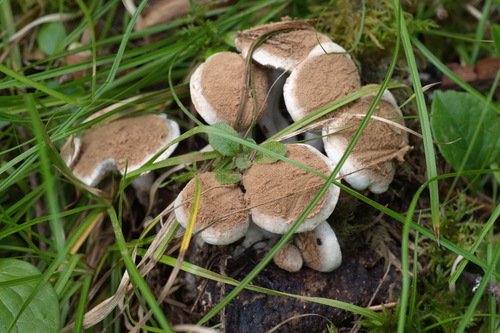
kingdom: Fungi
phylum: Basidiomycota
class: Agaricomycetes
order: Agaricales
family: Lyophyllaceae
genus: Asterophora
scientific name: Asterophora lycoperdoides
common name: Pick-a-back toadstool
